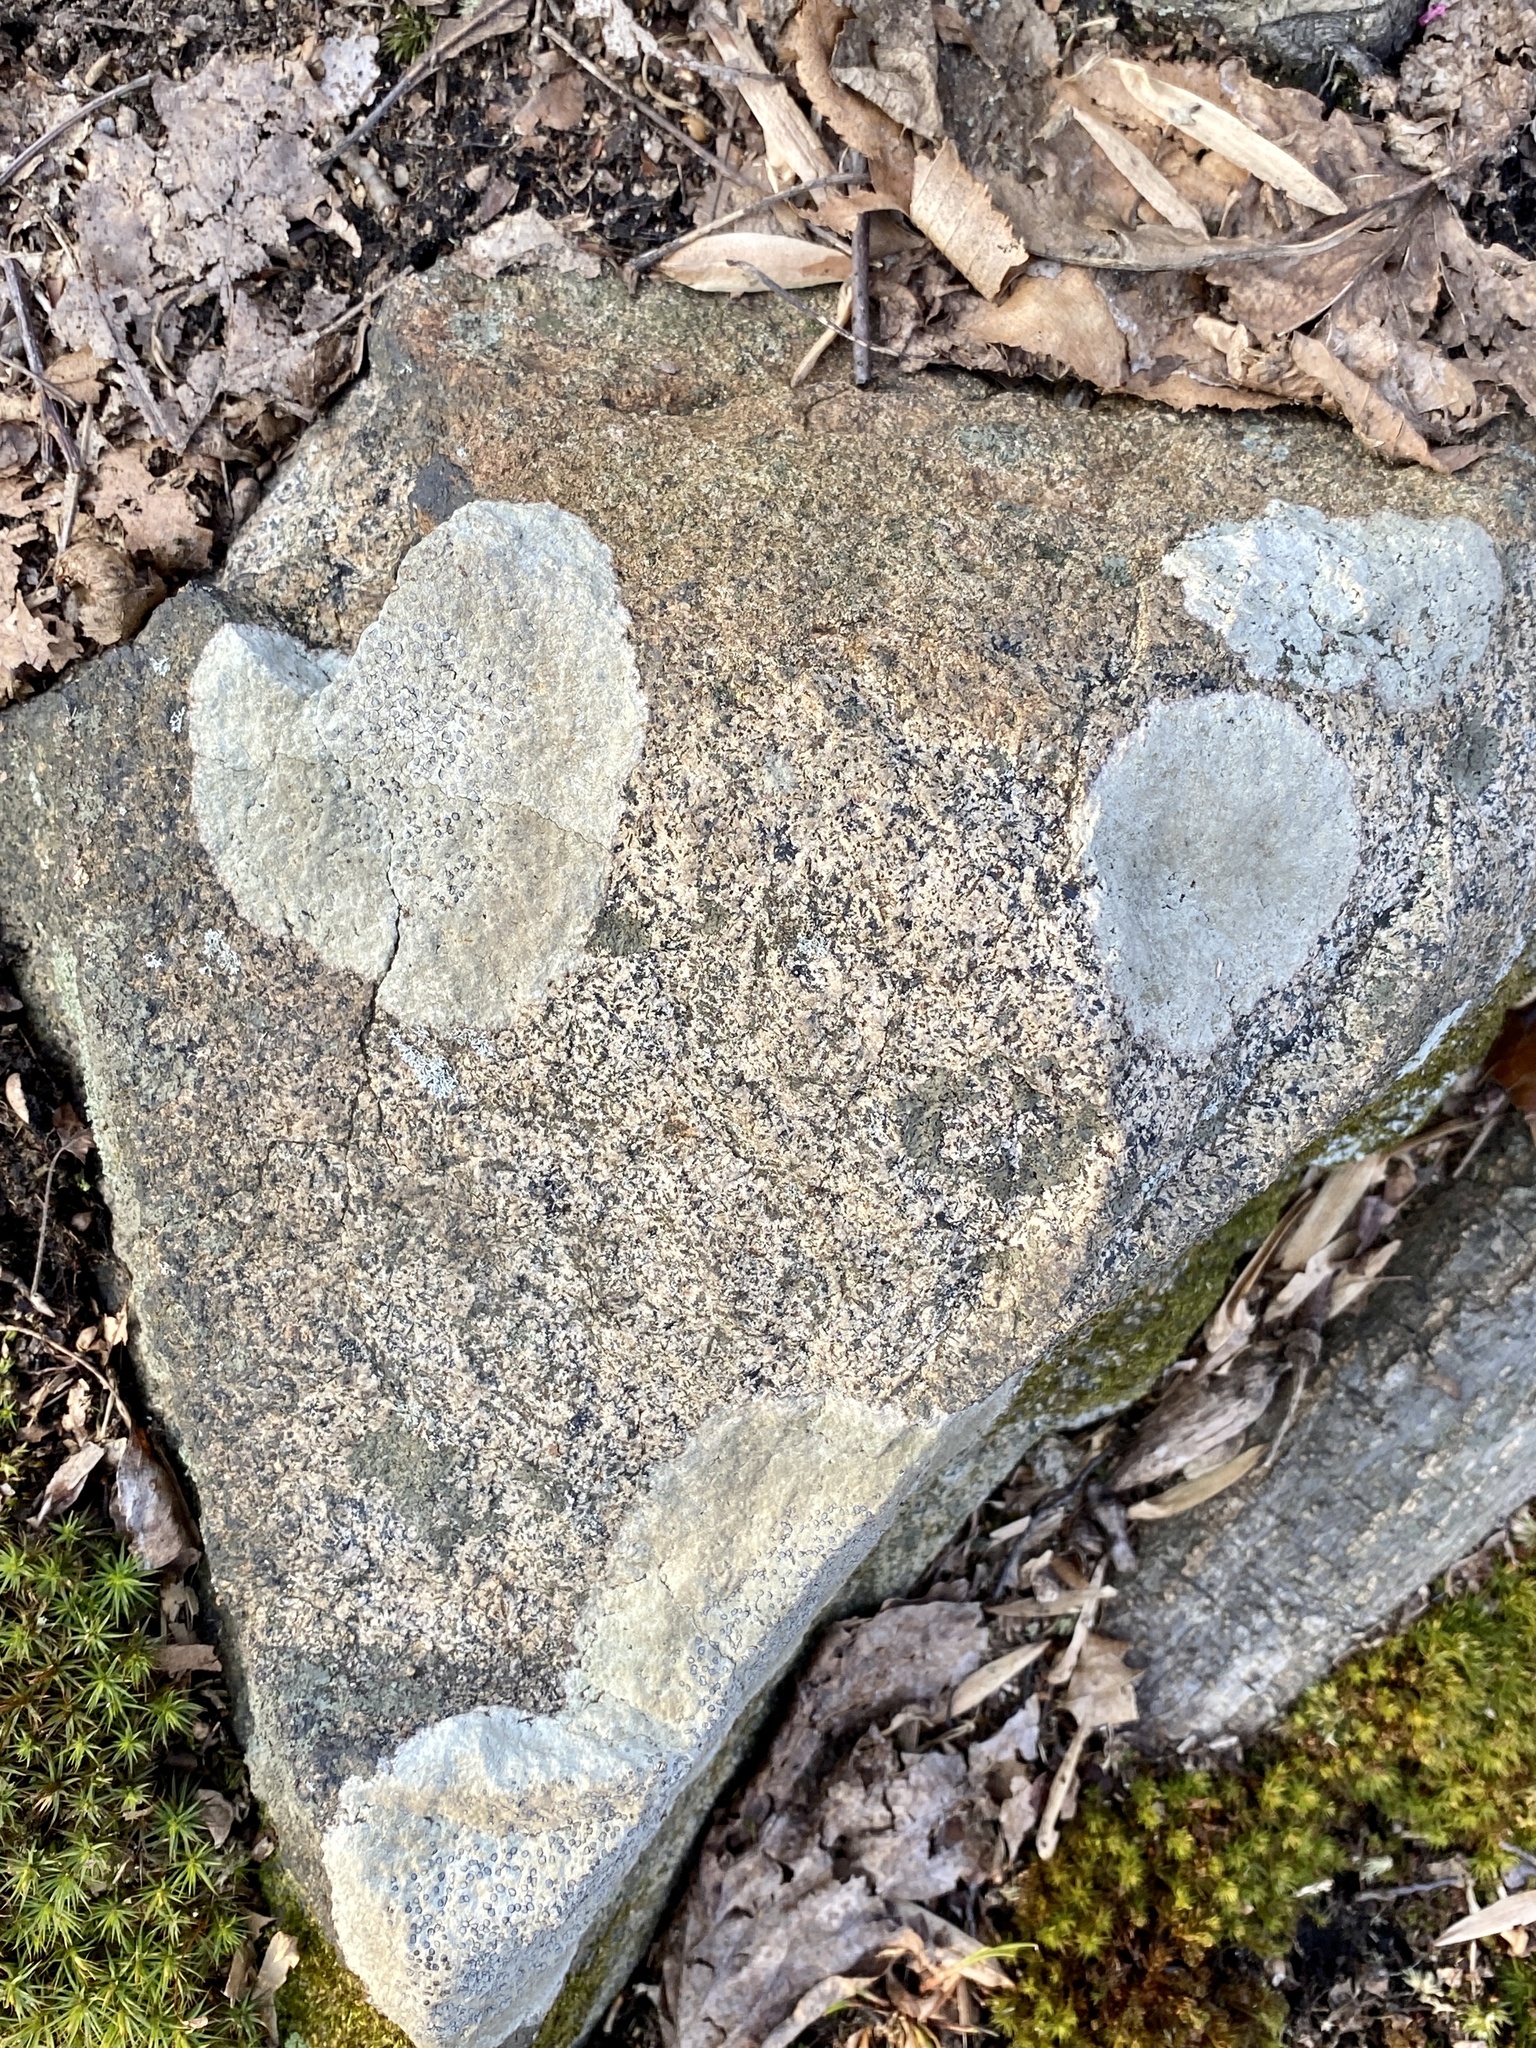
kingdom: Fungi
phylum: Ascomycota
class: Lecanoromycetes
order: Lecideales
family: Lecideaceae
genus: Porpidia
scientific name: Porpidia albocaerulescens
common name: Smokey-eyed boulder lichen
